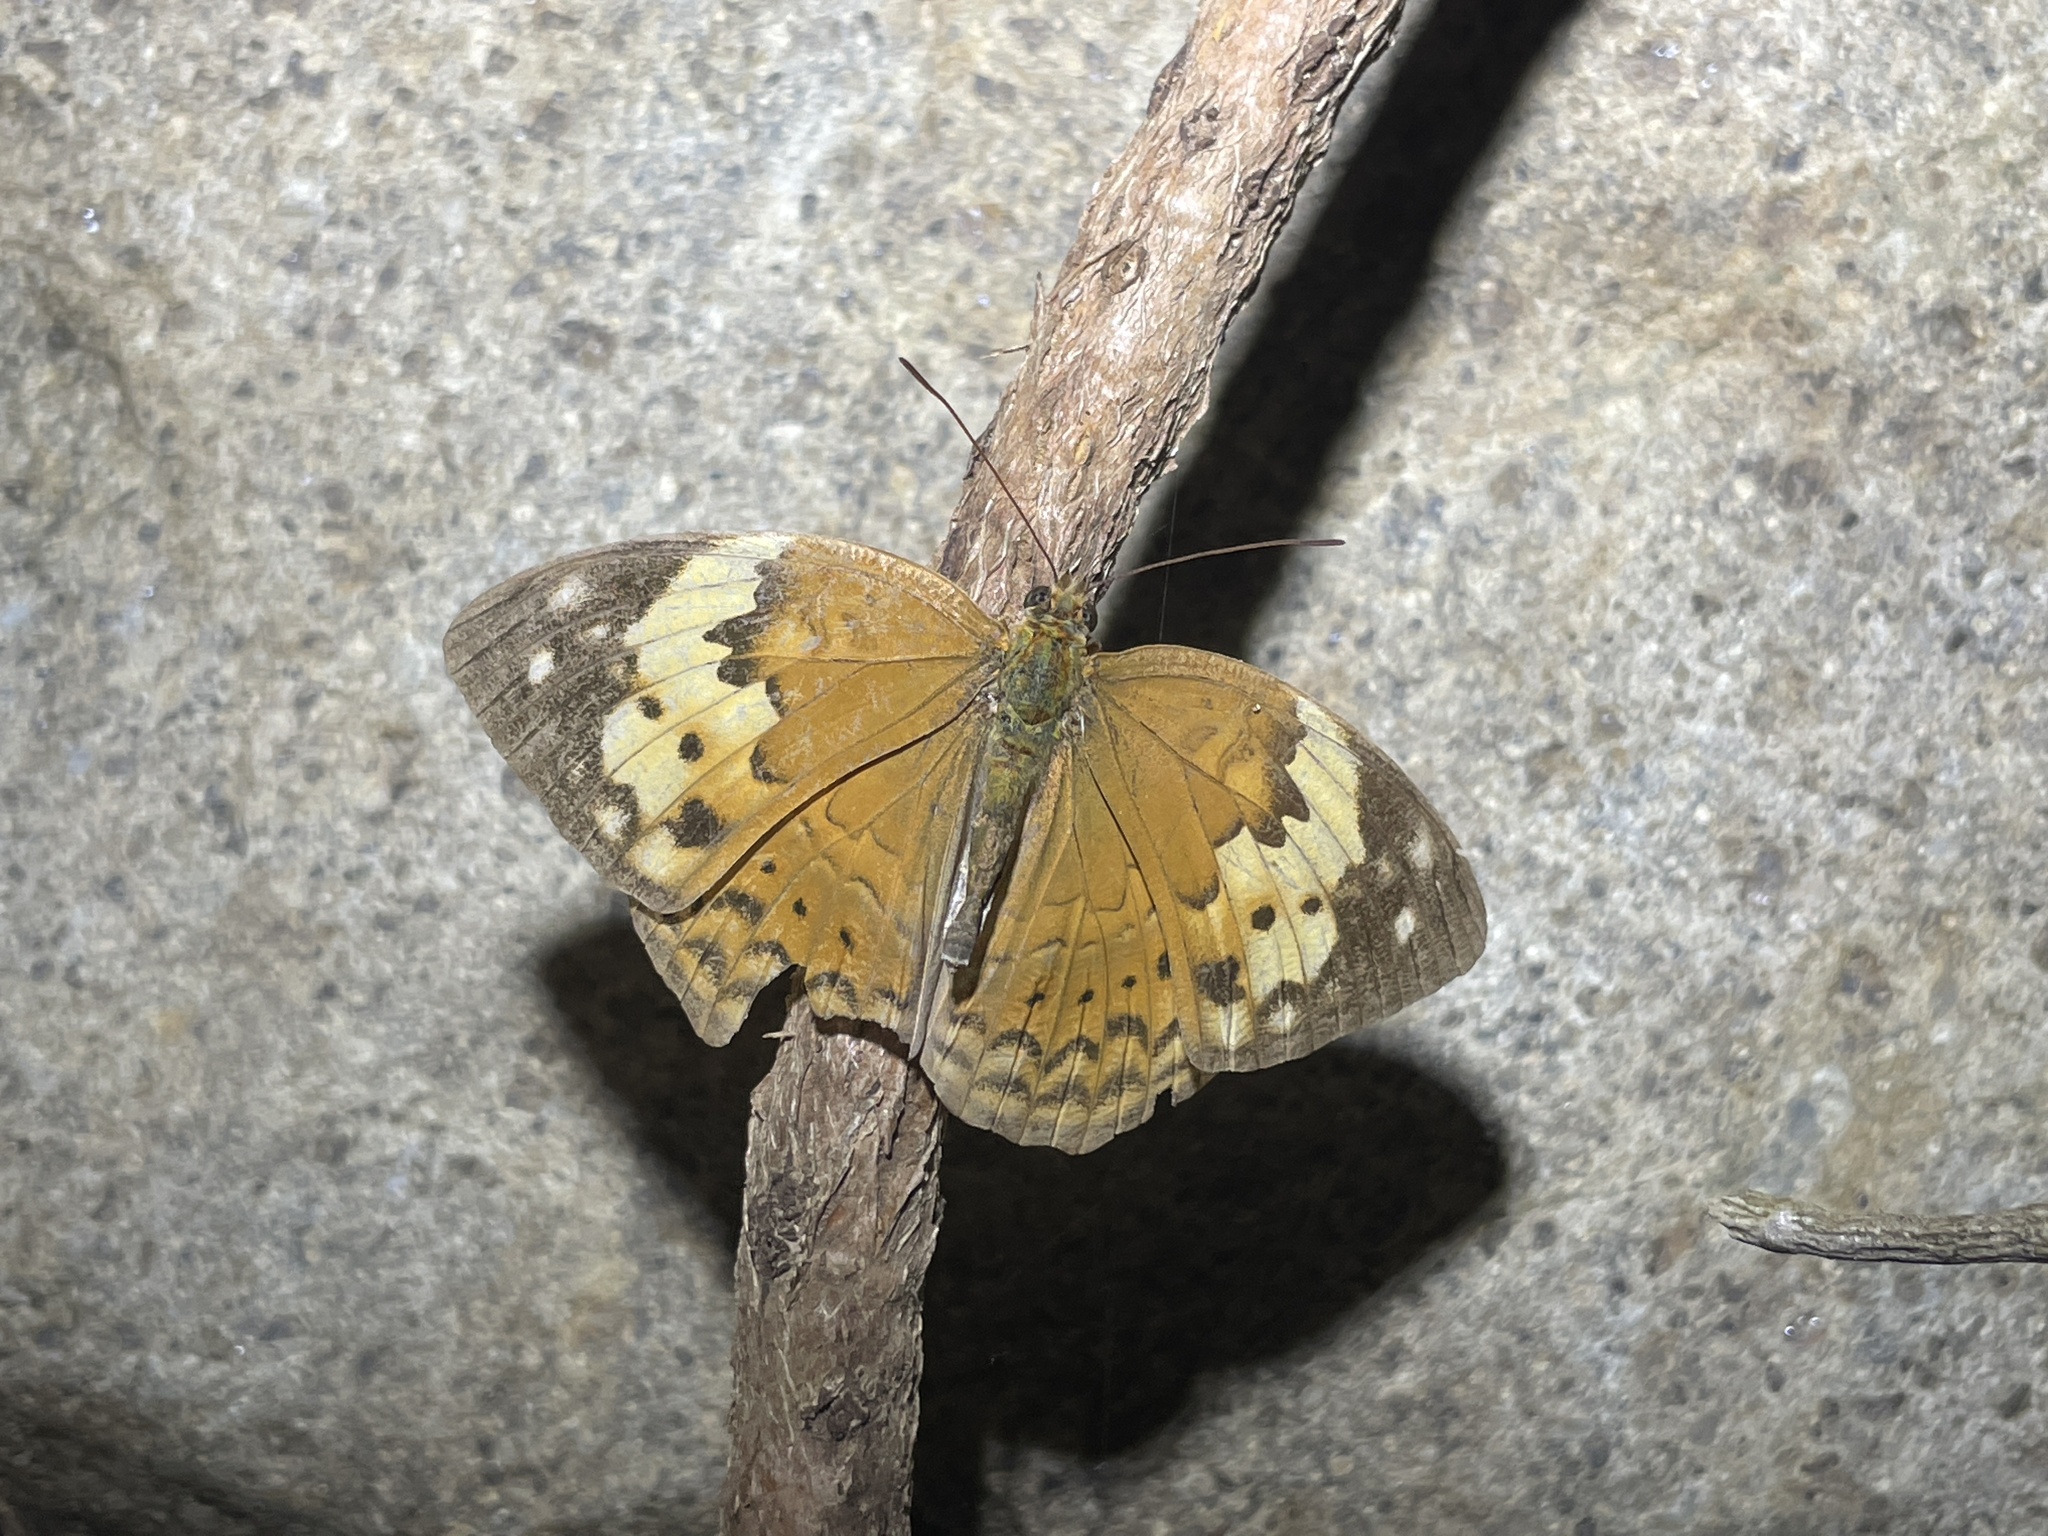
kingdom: Animalia
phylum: Arthropoda
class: Insecta
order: Lepidoptera
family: Nymphalidae
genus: Cupha
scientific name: Cupha erymanthis
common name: Rustic
